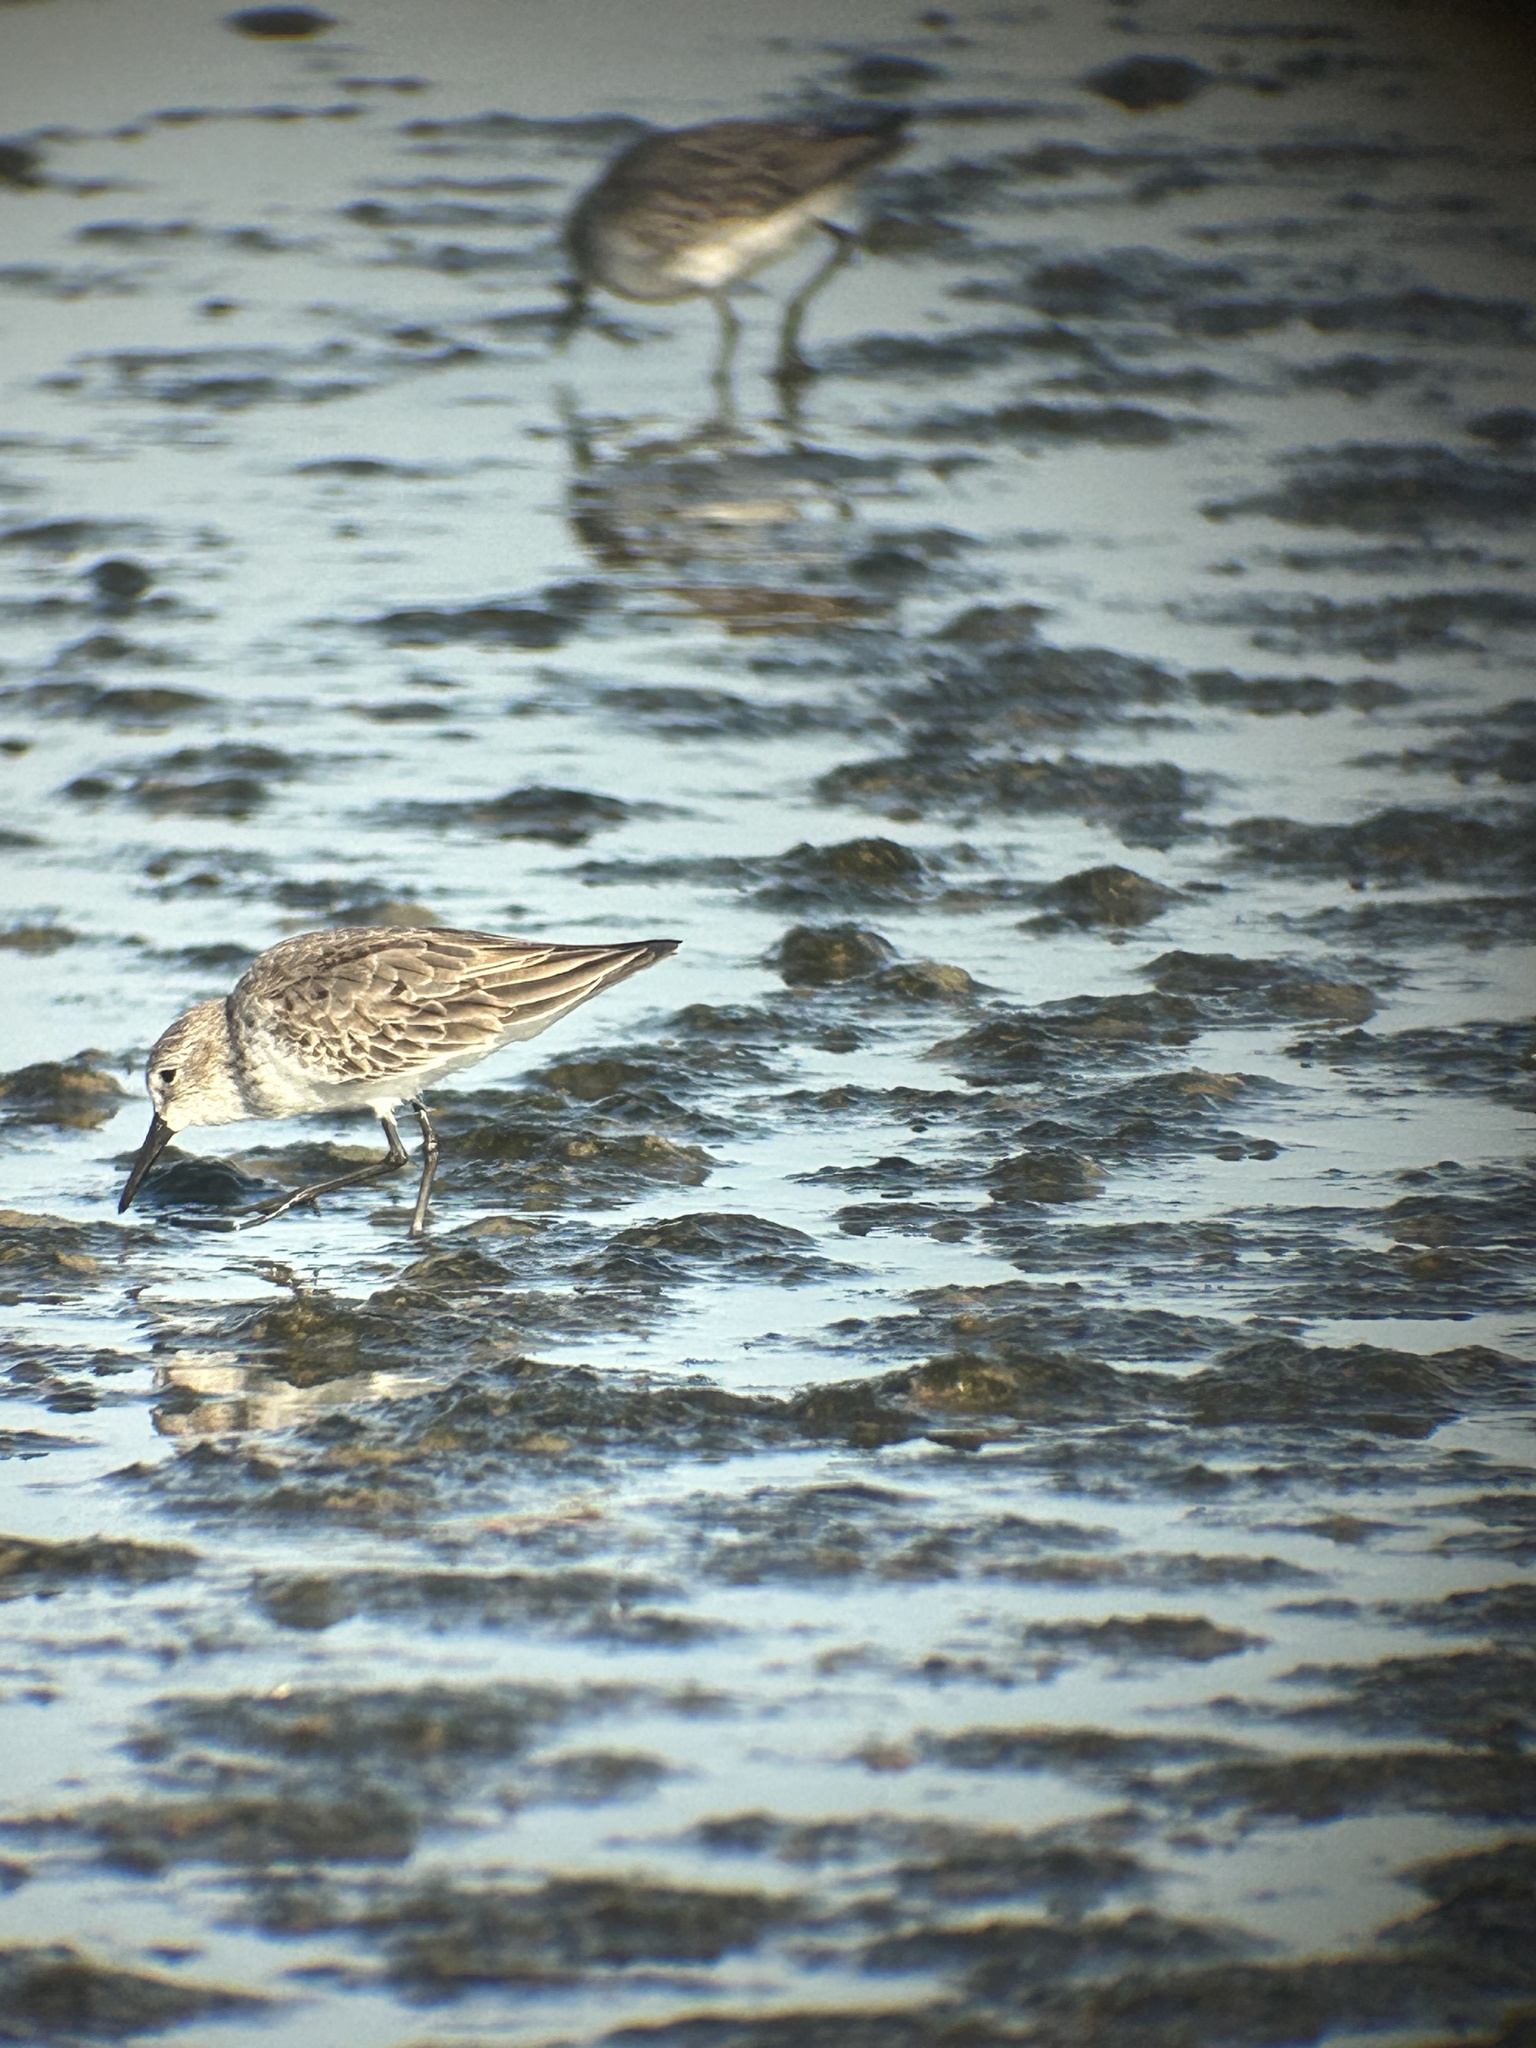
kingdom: Animalia
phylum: Chordata
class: Aves
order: Charadriiformes
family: Scolopacidae
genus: Calidris
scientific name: Calidris mauri
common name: Western sandpiper
